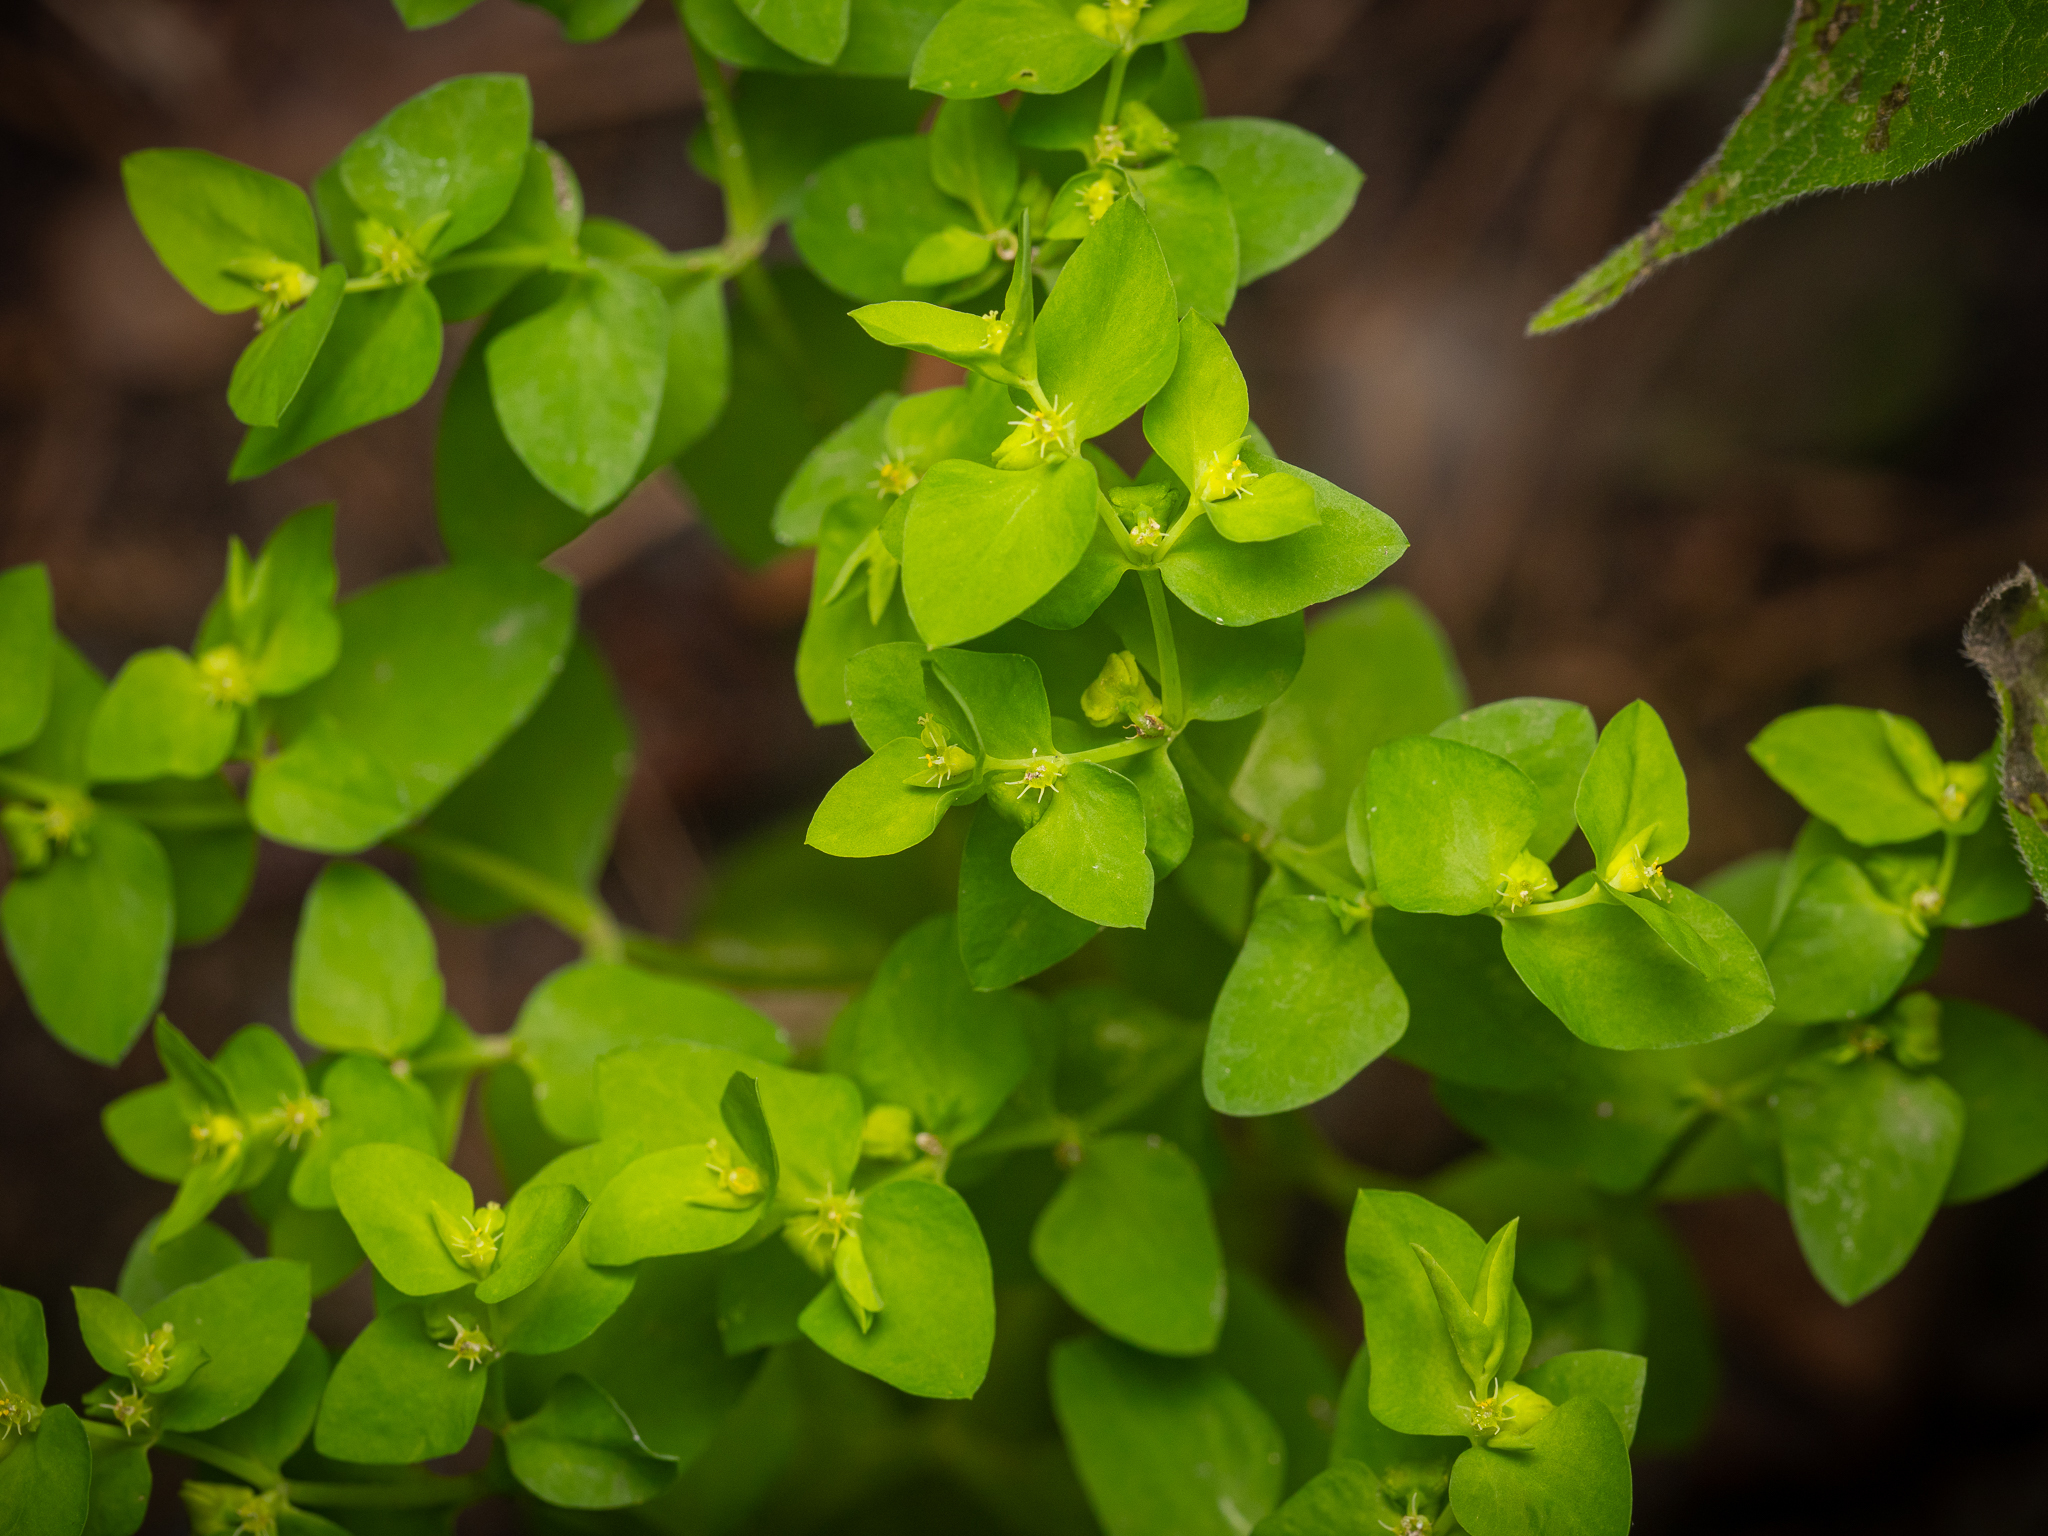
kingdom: Plantae
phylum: Tracheophyta
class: Magnoliopsida
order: Malpighiales
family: Euphorbiaceae
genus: Euphorbia
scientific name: Euphorbia peplus
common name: Petty spurge
